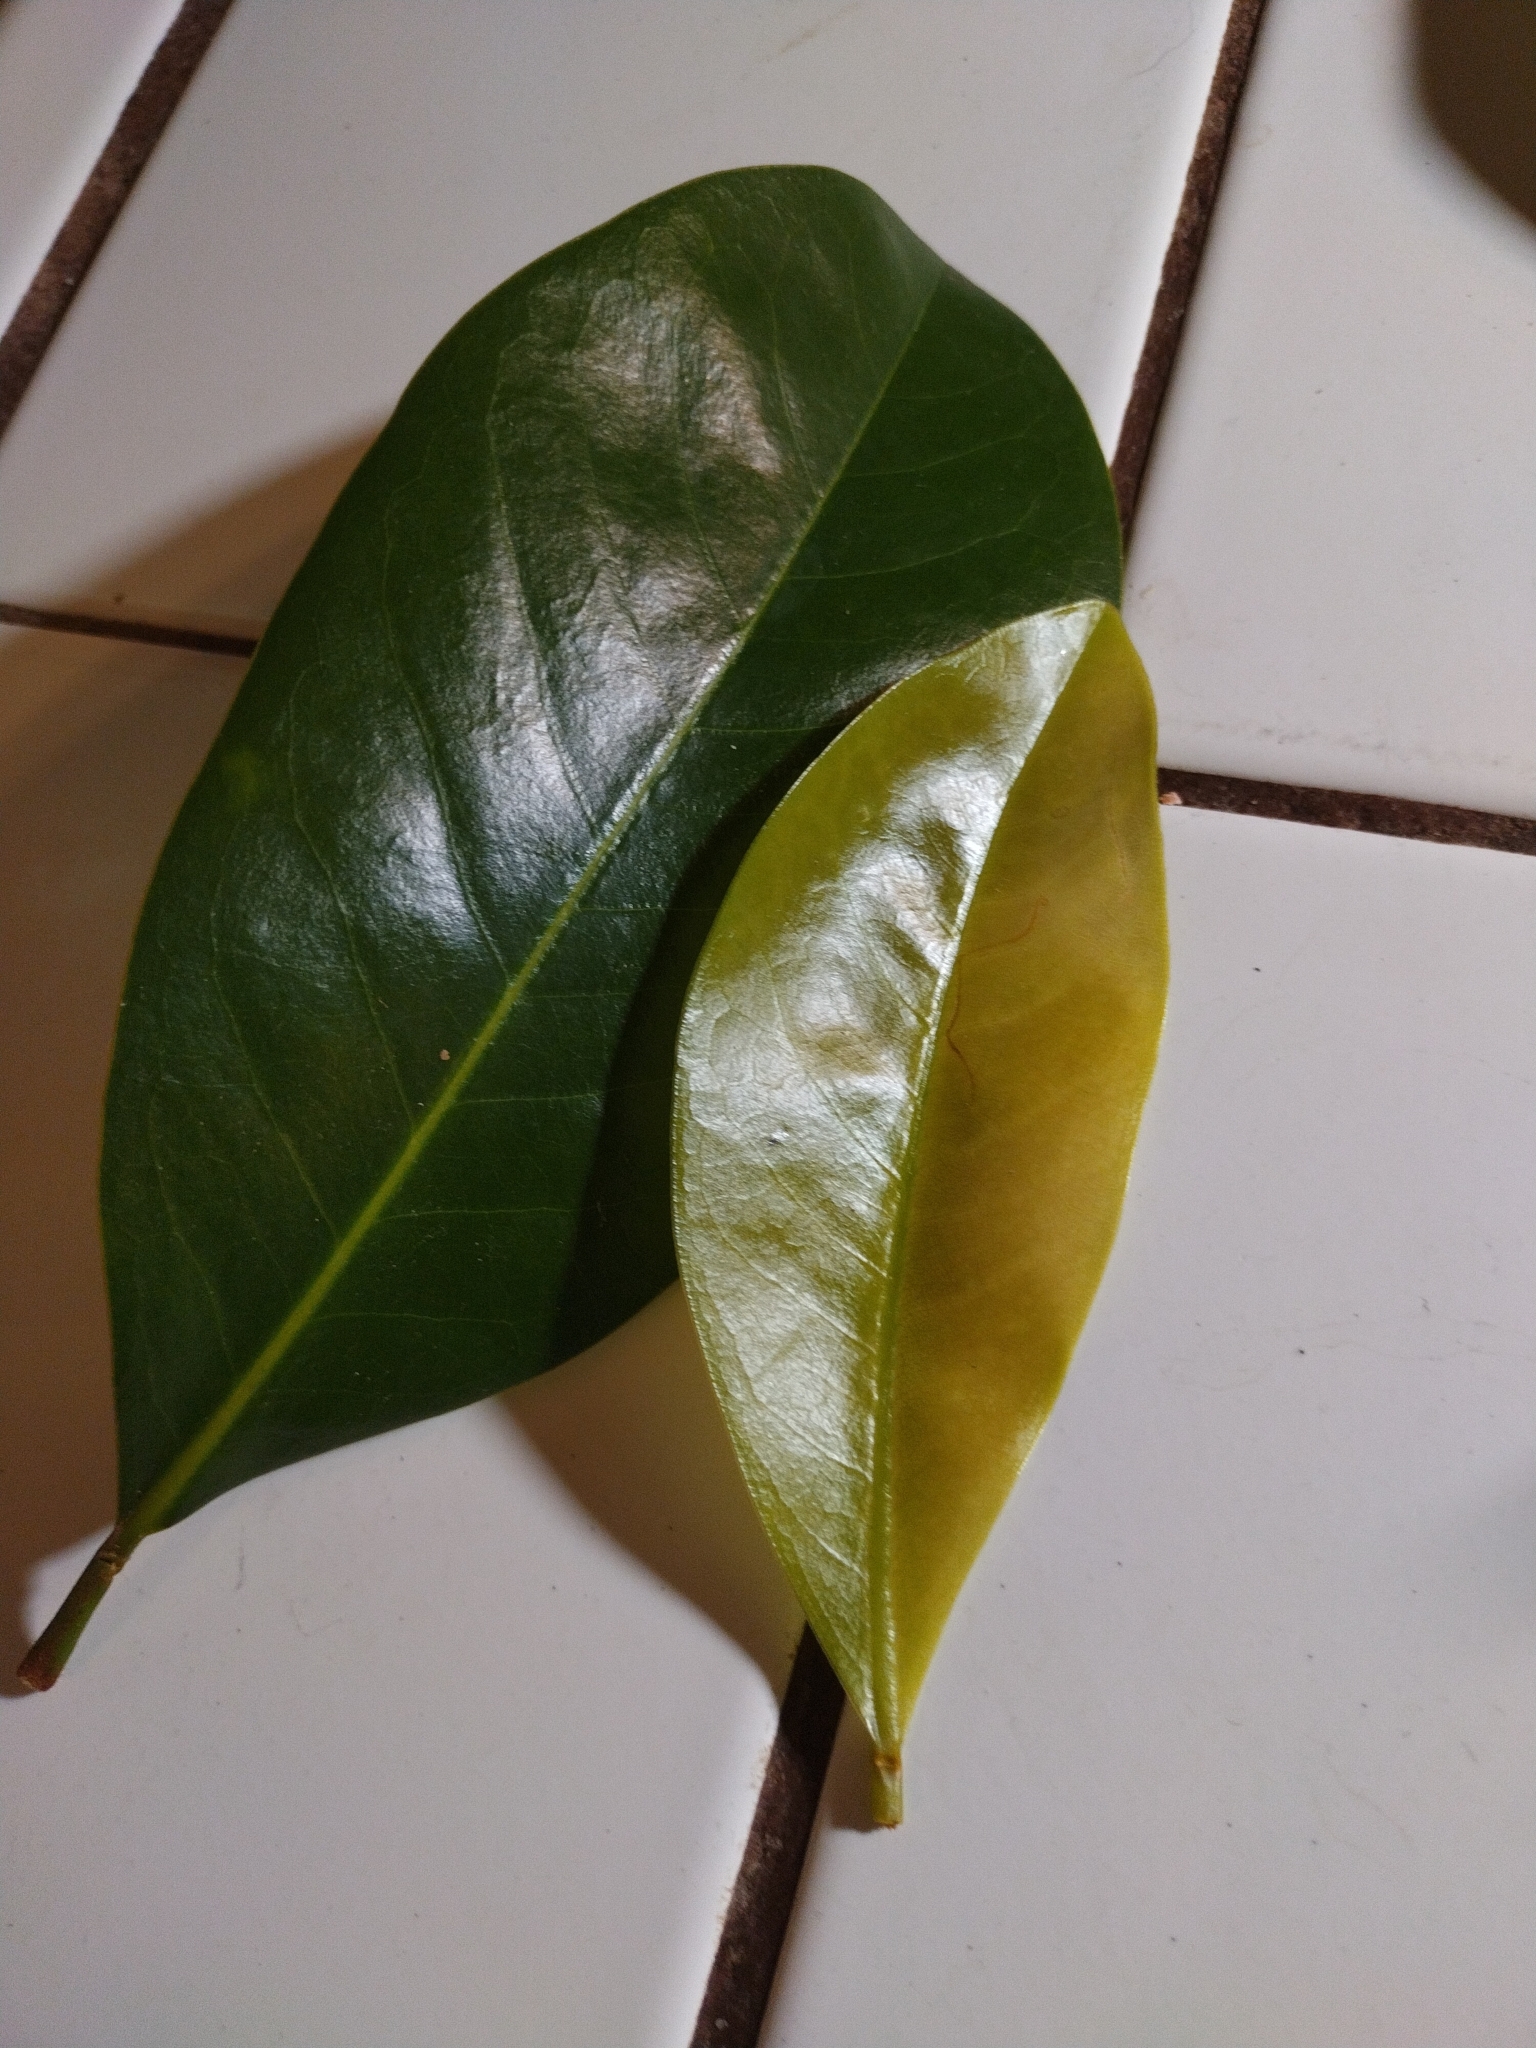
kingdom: Plantae
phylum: Tracheophyta
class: Magnoliopsida
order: Magnoliales
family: Magnoliaceae
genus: Magnolia
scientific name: Magnolia grandiflora
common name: Southern magnolia
